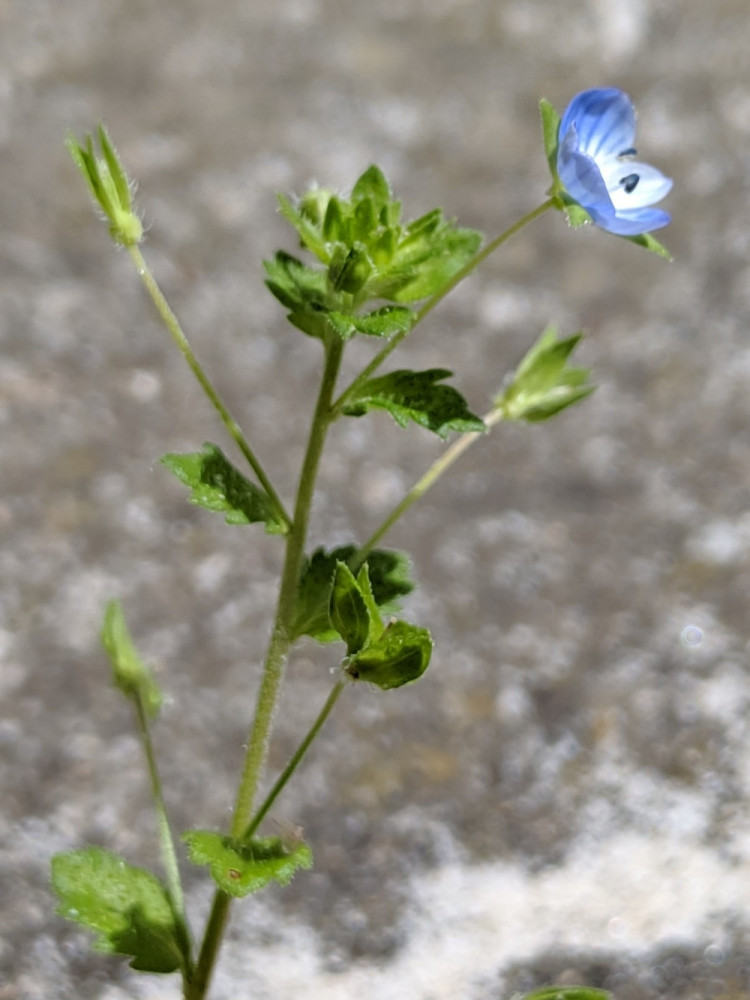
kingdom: Plantae
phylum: Tracheophyta
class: Magnoliopsida
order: Lamiales
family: Plantaginaceae
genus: Veronica
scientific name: Veronica persica
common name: Common field-speedwell
